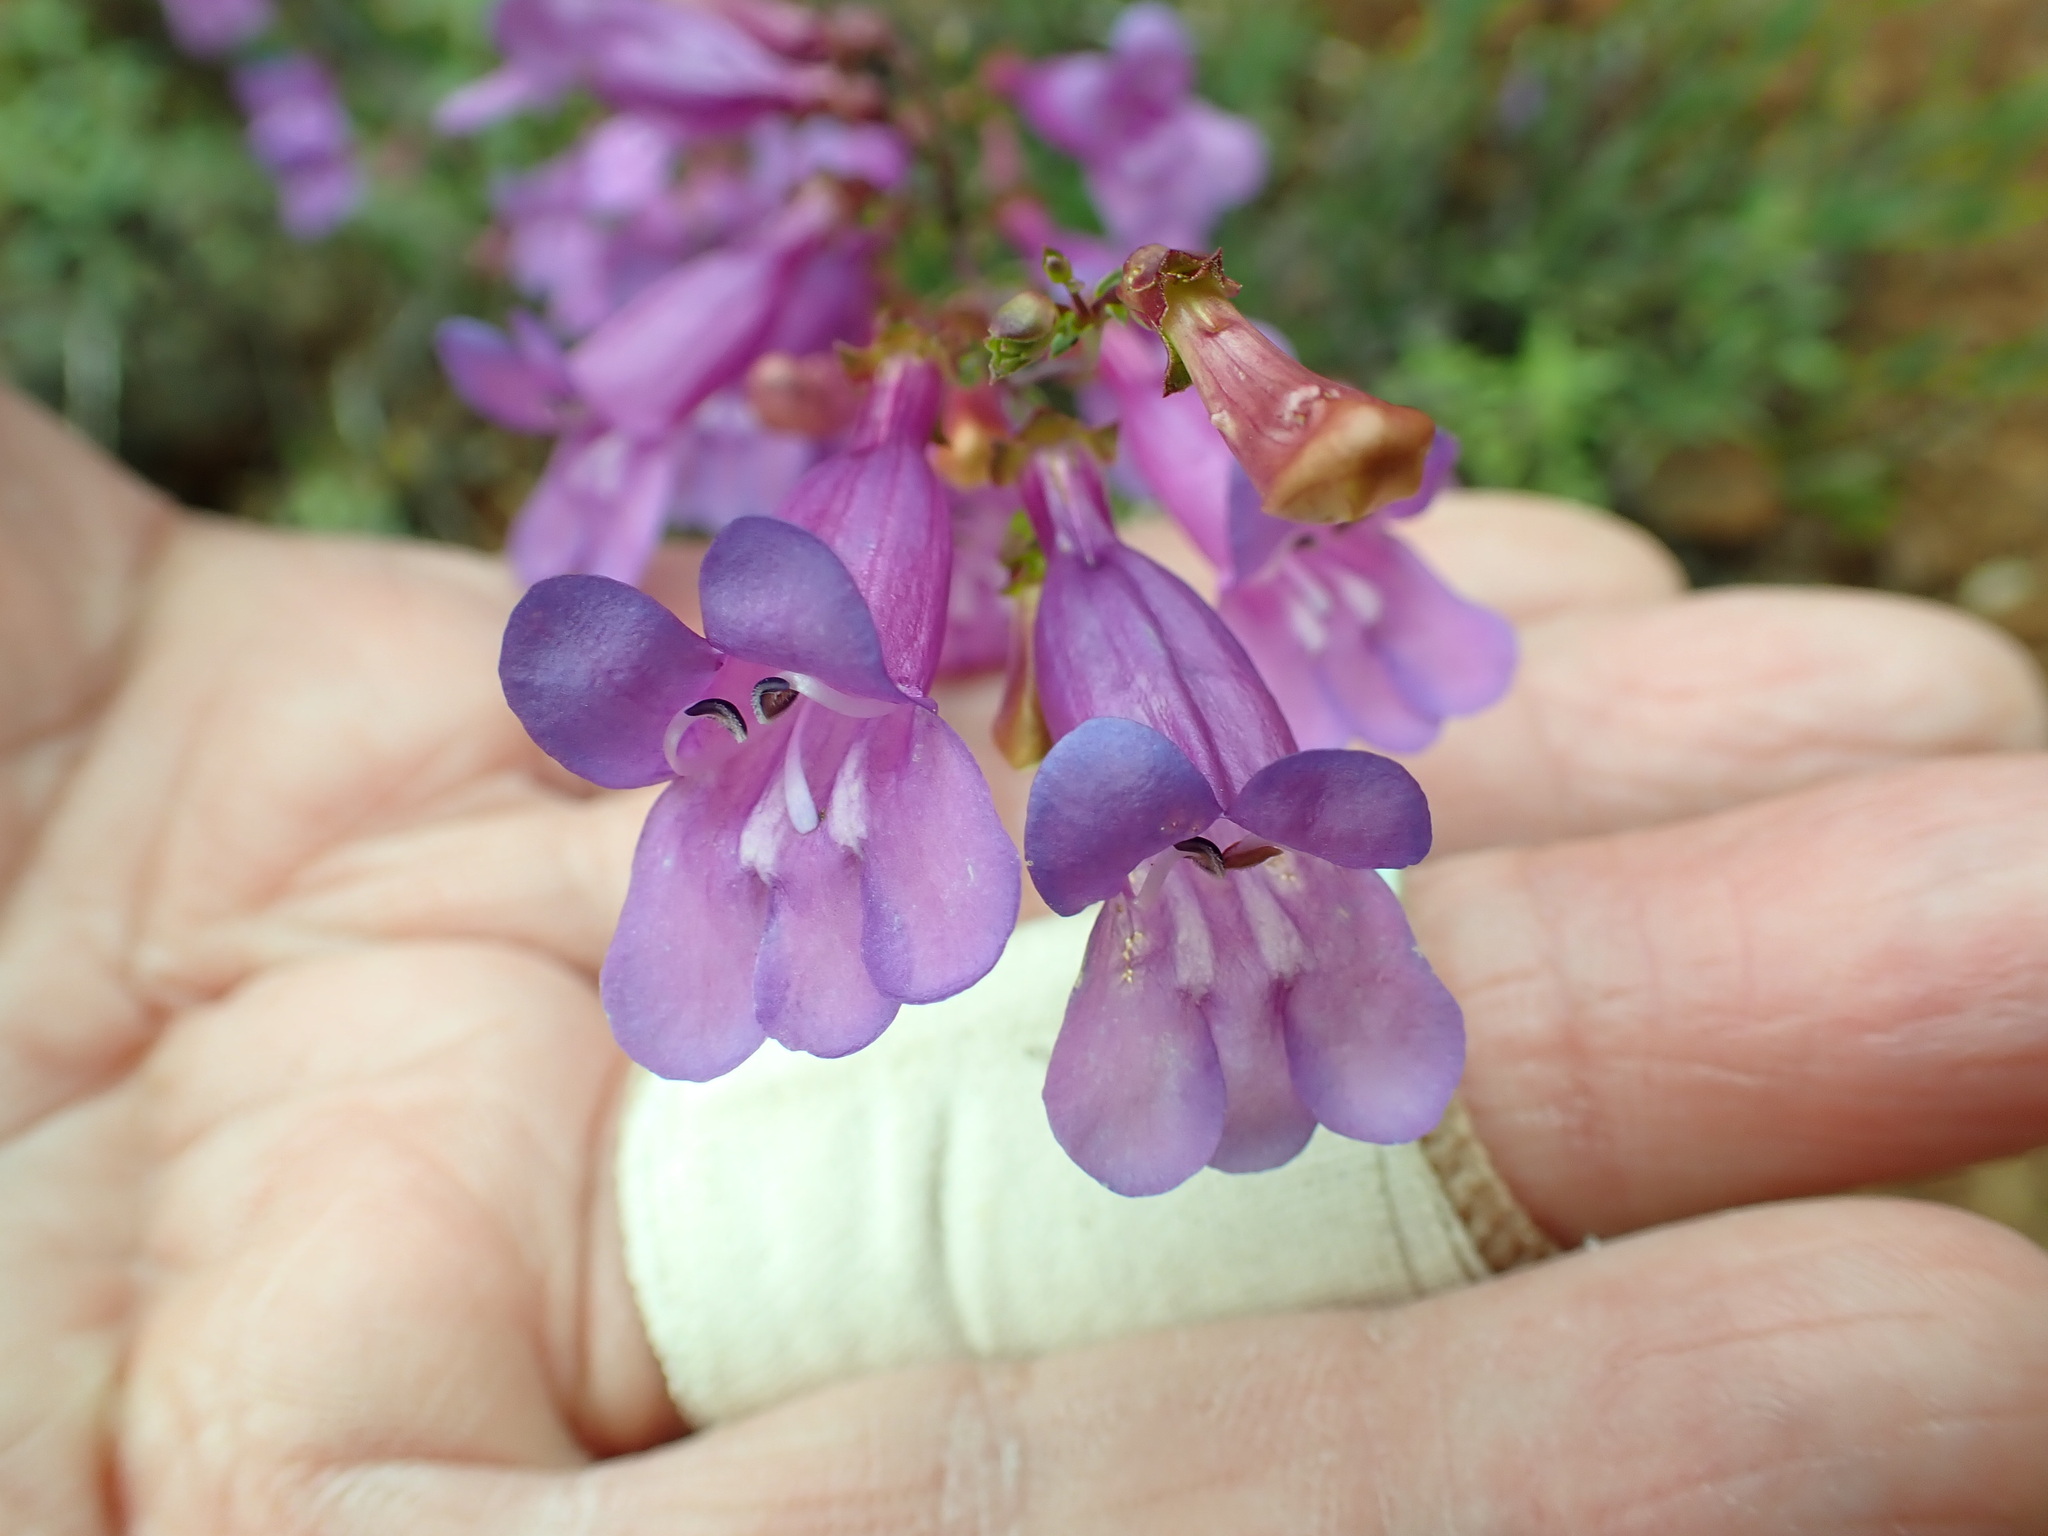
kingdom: Plantae
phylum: Tracheophyta
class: Magnoliopsida
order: Lamiales
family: Plantaginaceae
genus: Penstemon
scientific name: Penstemon parvulus
